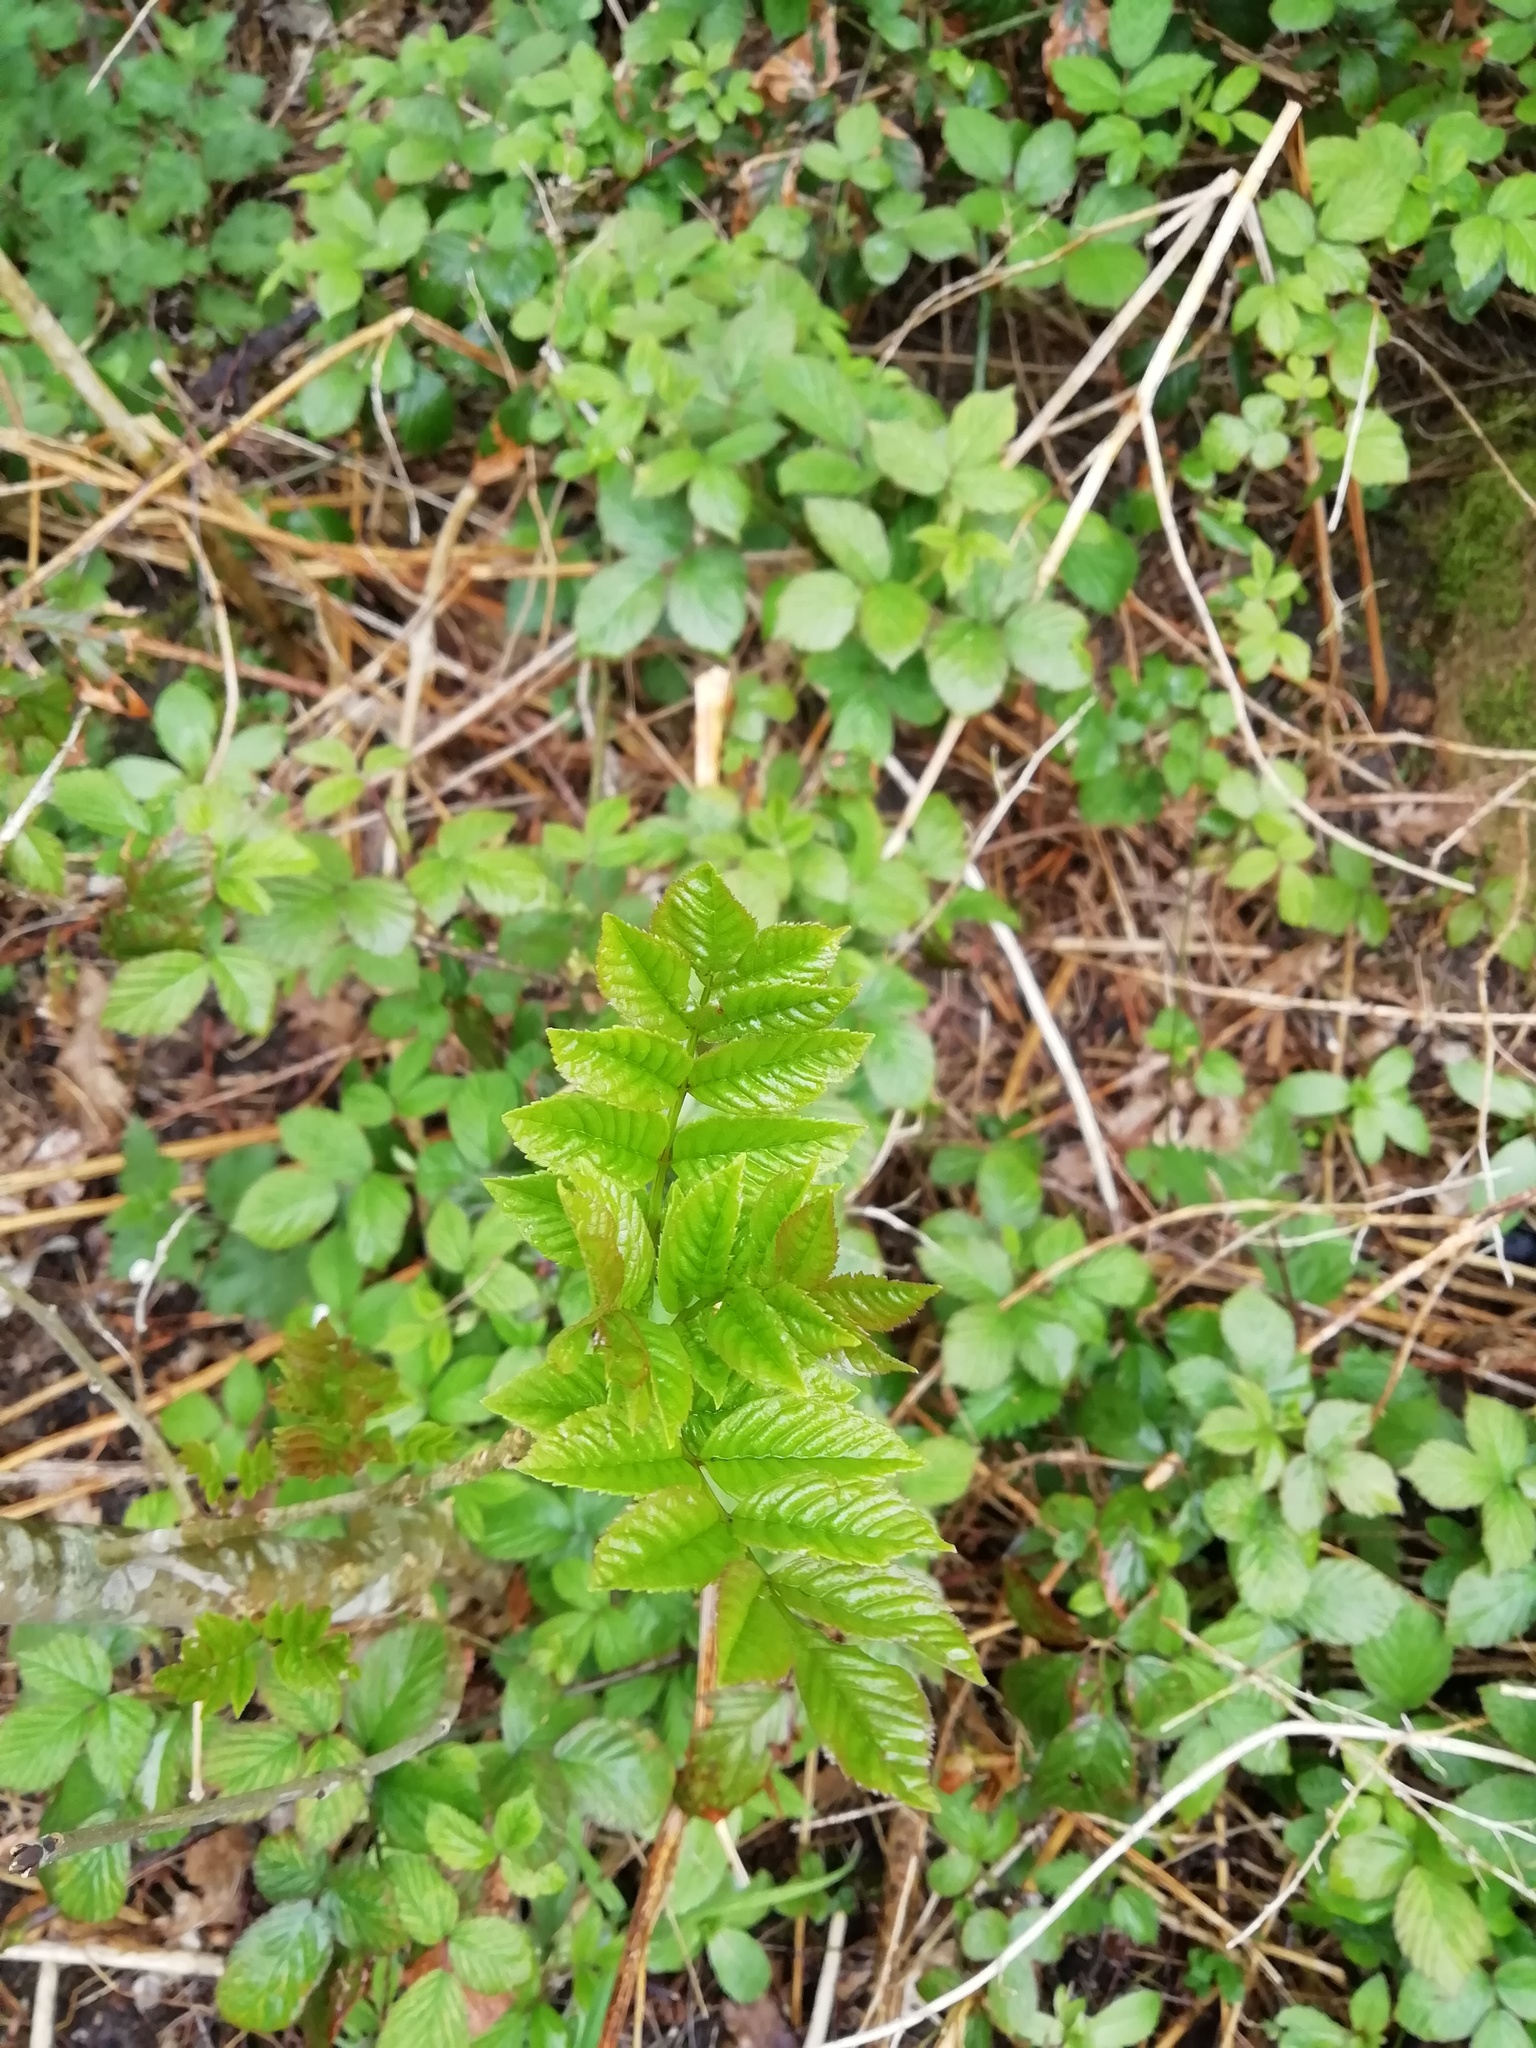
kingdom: Plantae
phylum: Tracheophyta
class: Magnoliopsida
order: Lamiales
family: Oleaceae
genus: Fraxinus
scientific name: Fraxinus excelsior
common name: European ash
